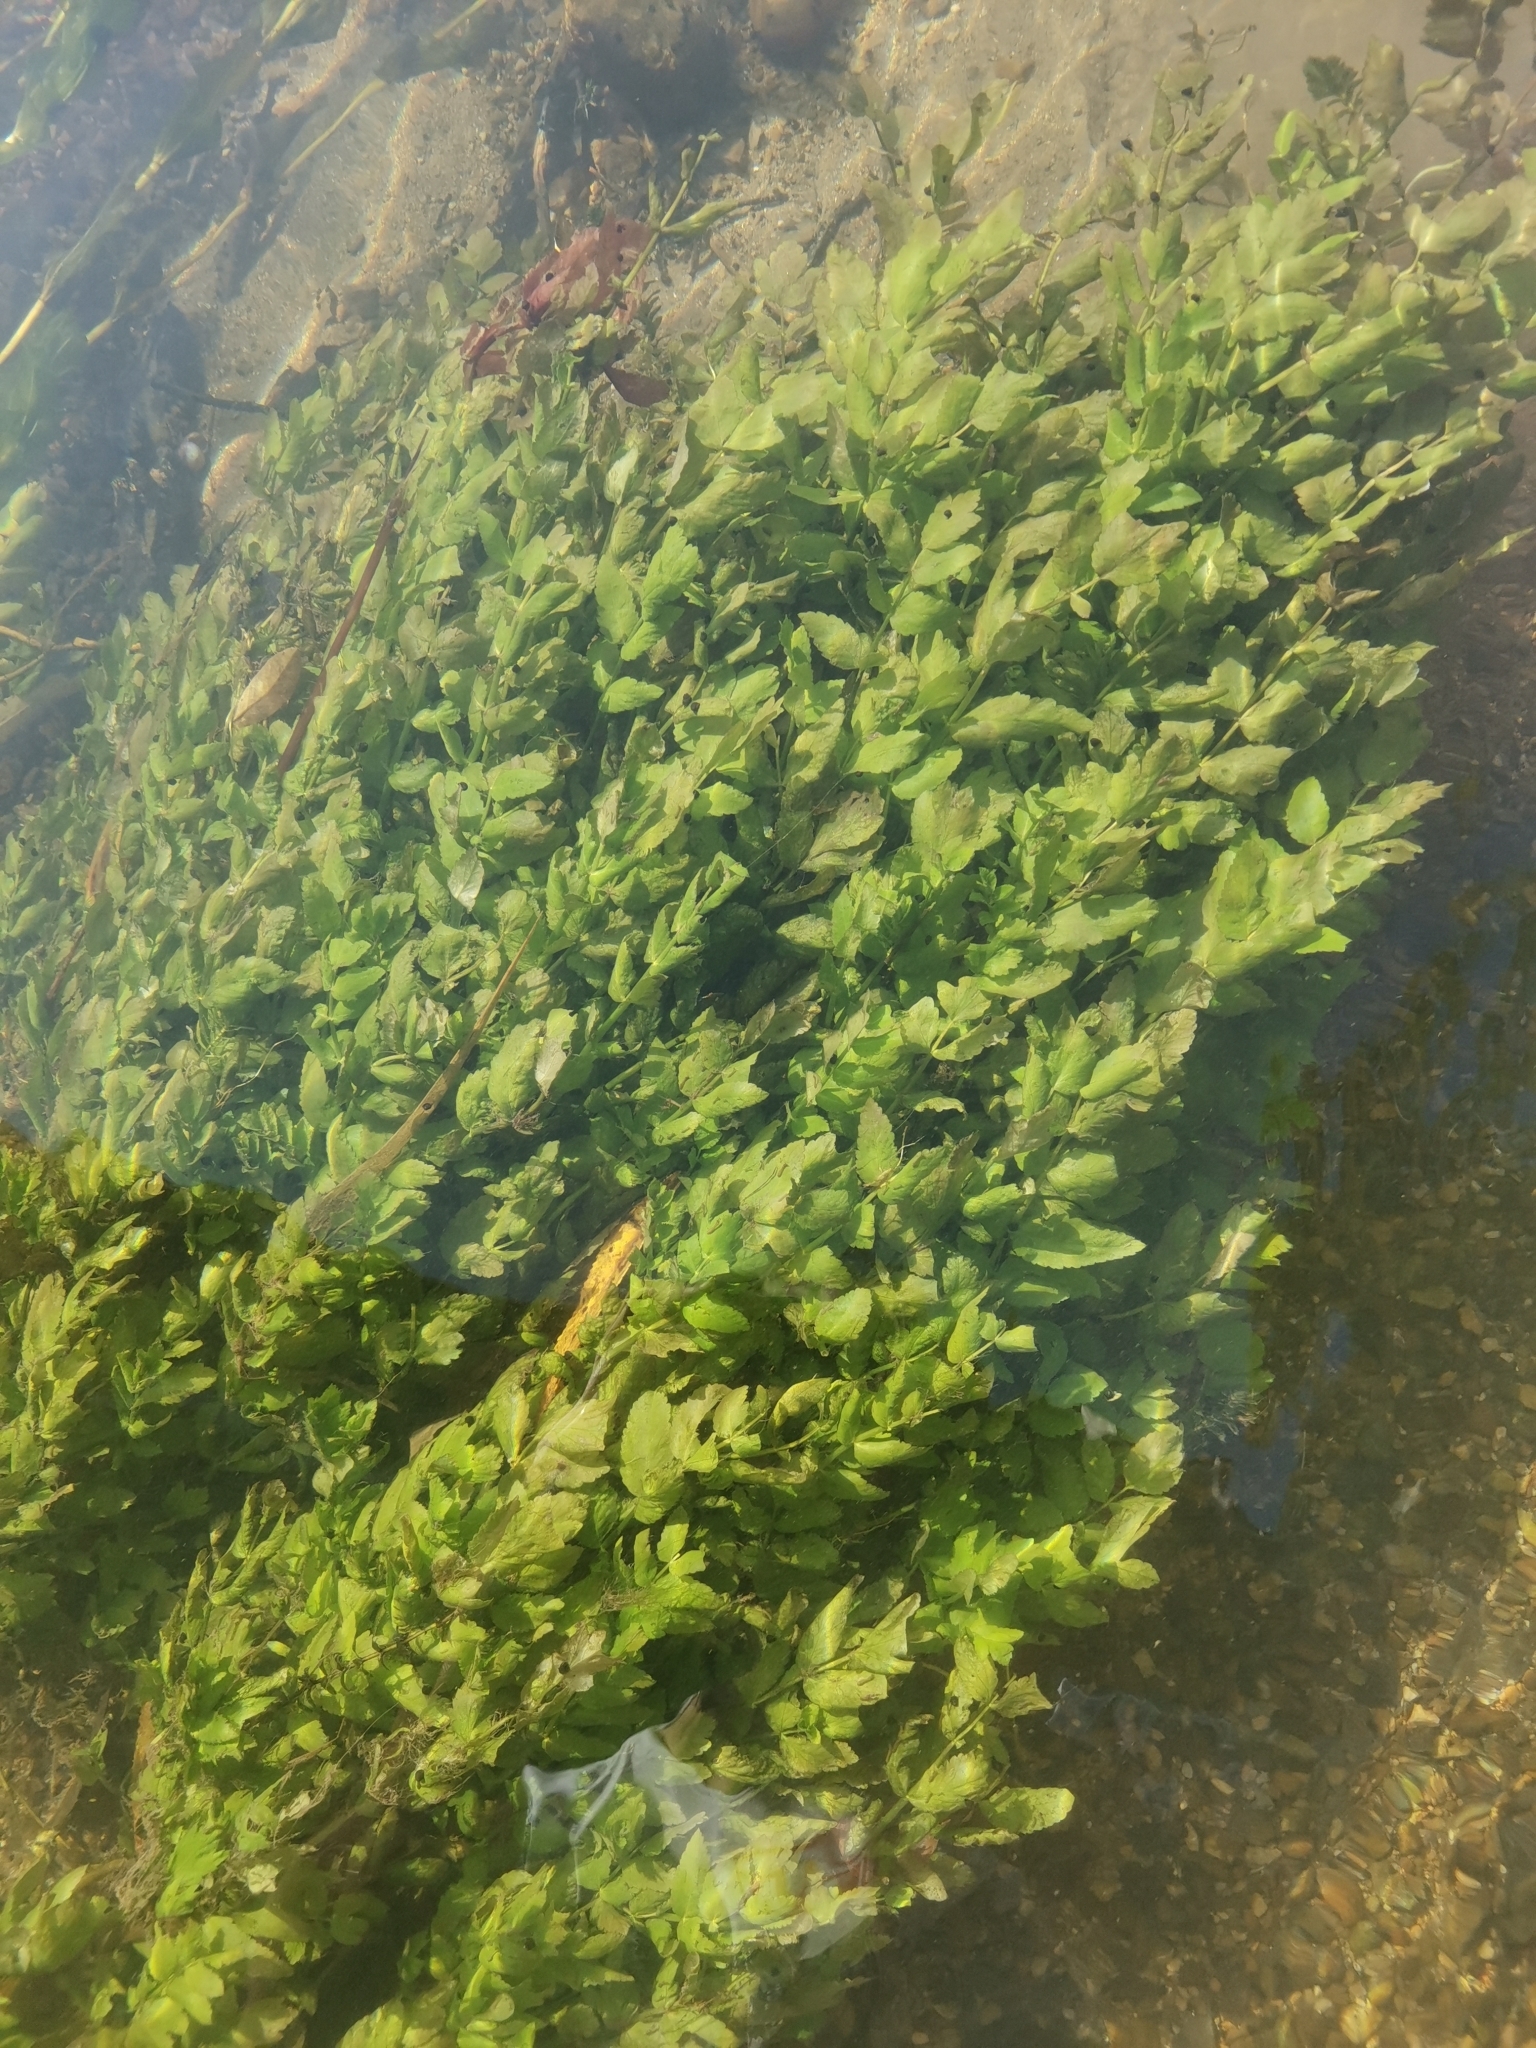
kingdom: Plantae
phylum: Tracheophyta
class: Magnoliopsida
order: Apiales
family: Apiaceae
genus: Berula
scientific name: Berula erecta
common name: Lesser water-parsnip
